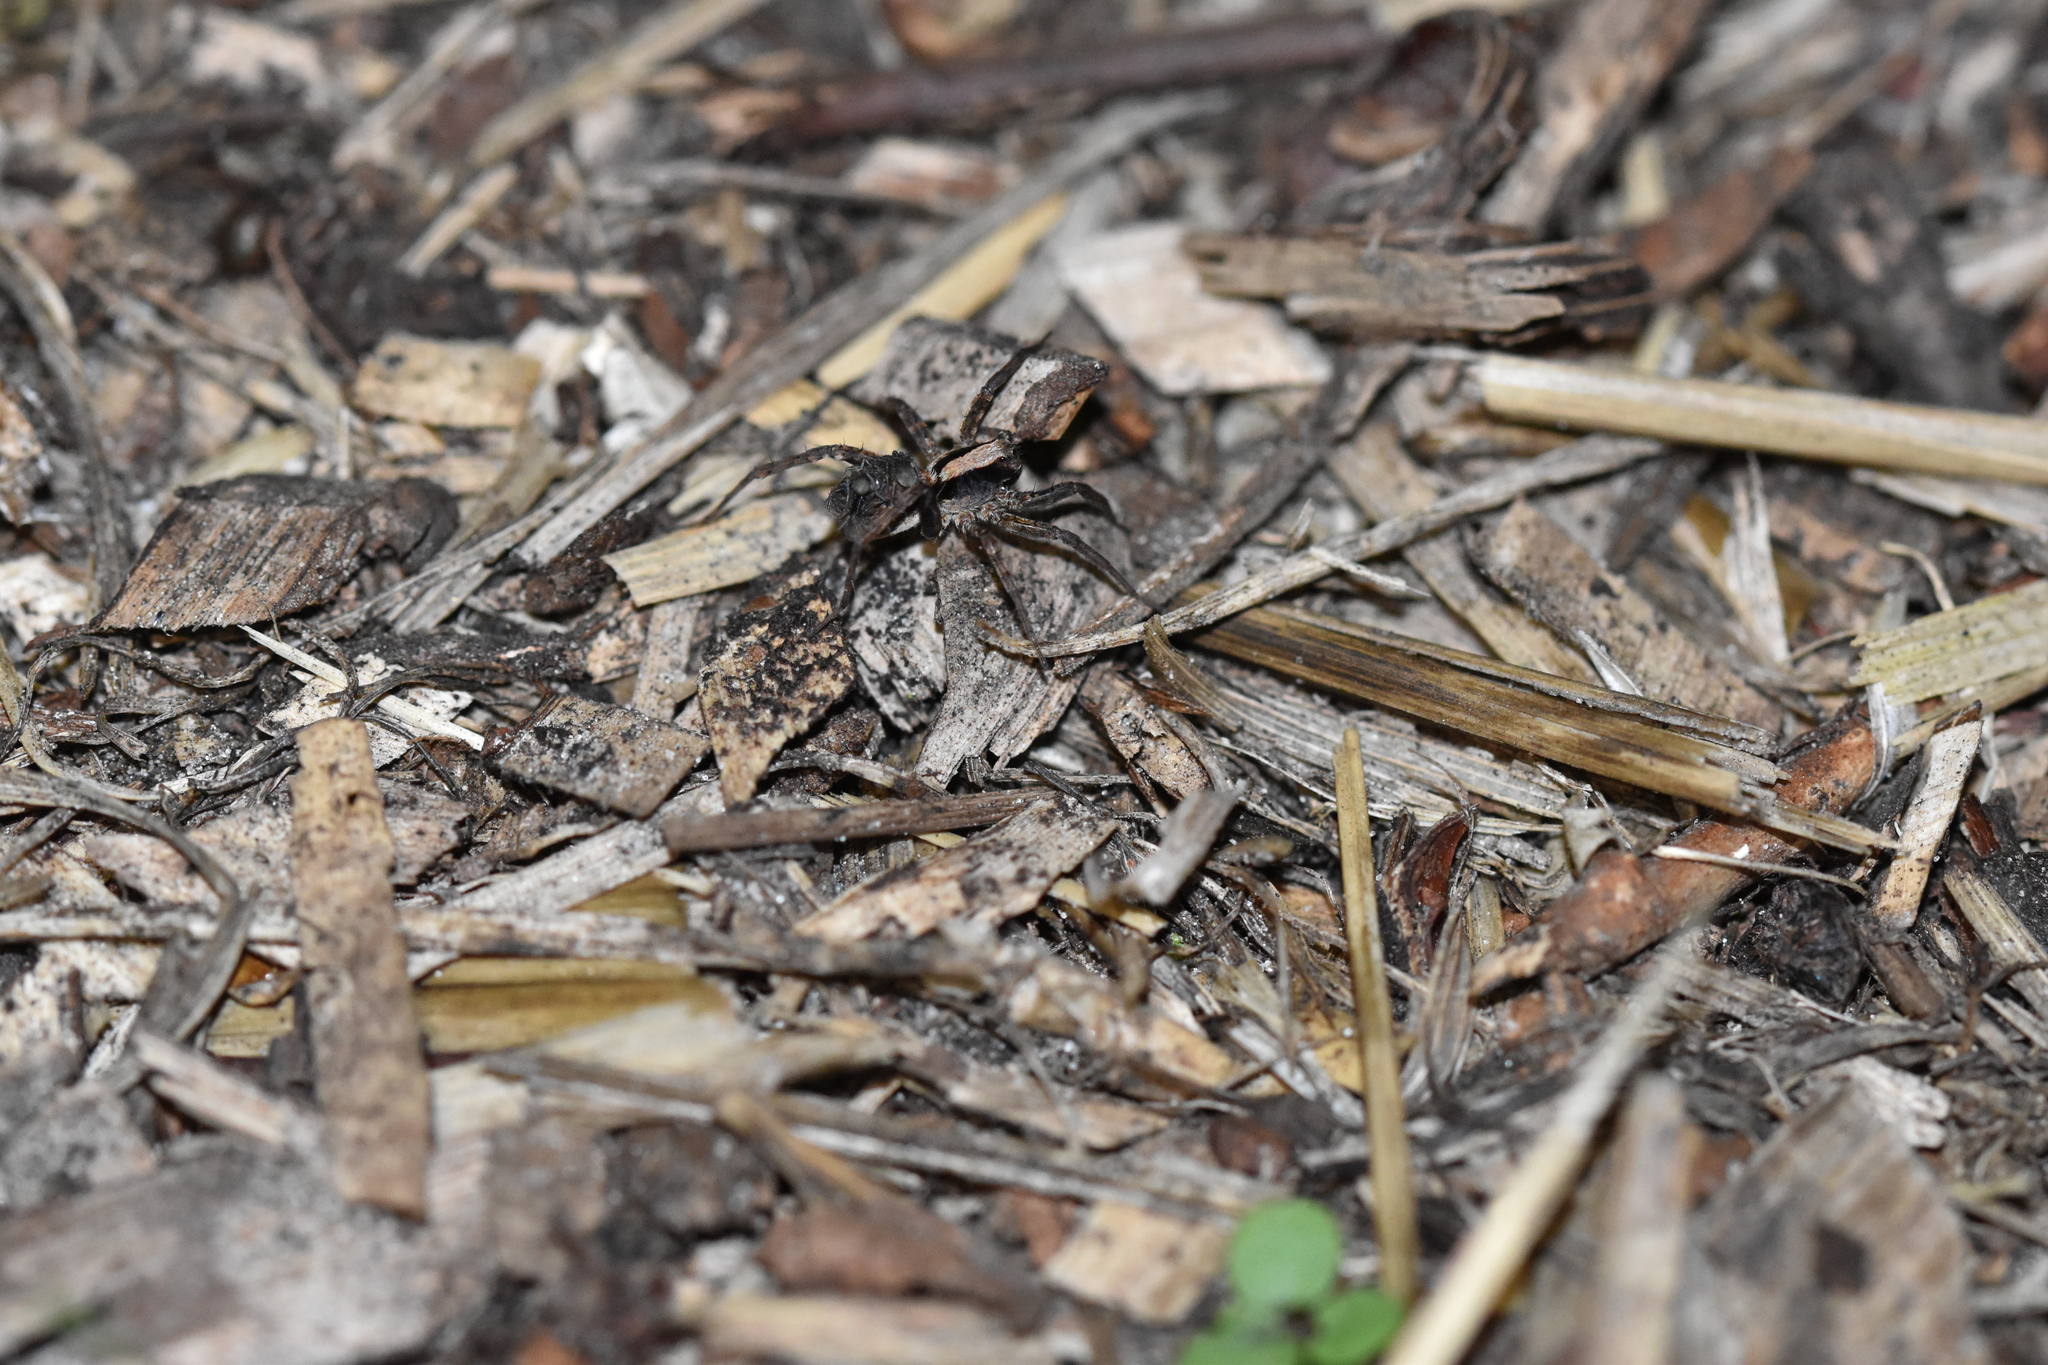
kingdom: Animalia
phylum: Arthropoda
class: Arachnida
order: Araneae
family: Lycosidae
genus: Xerolycosa
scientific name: Xerolycosa nemoralis
